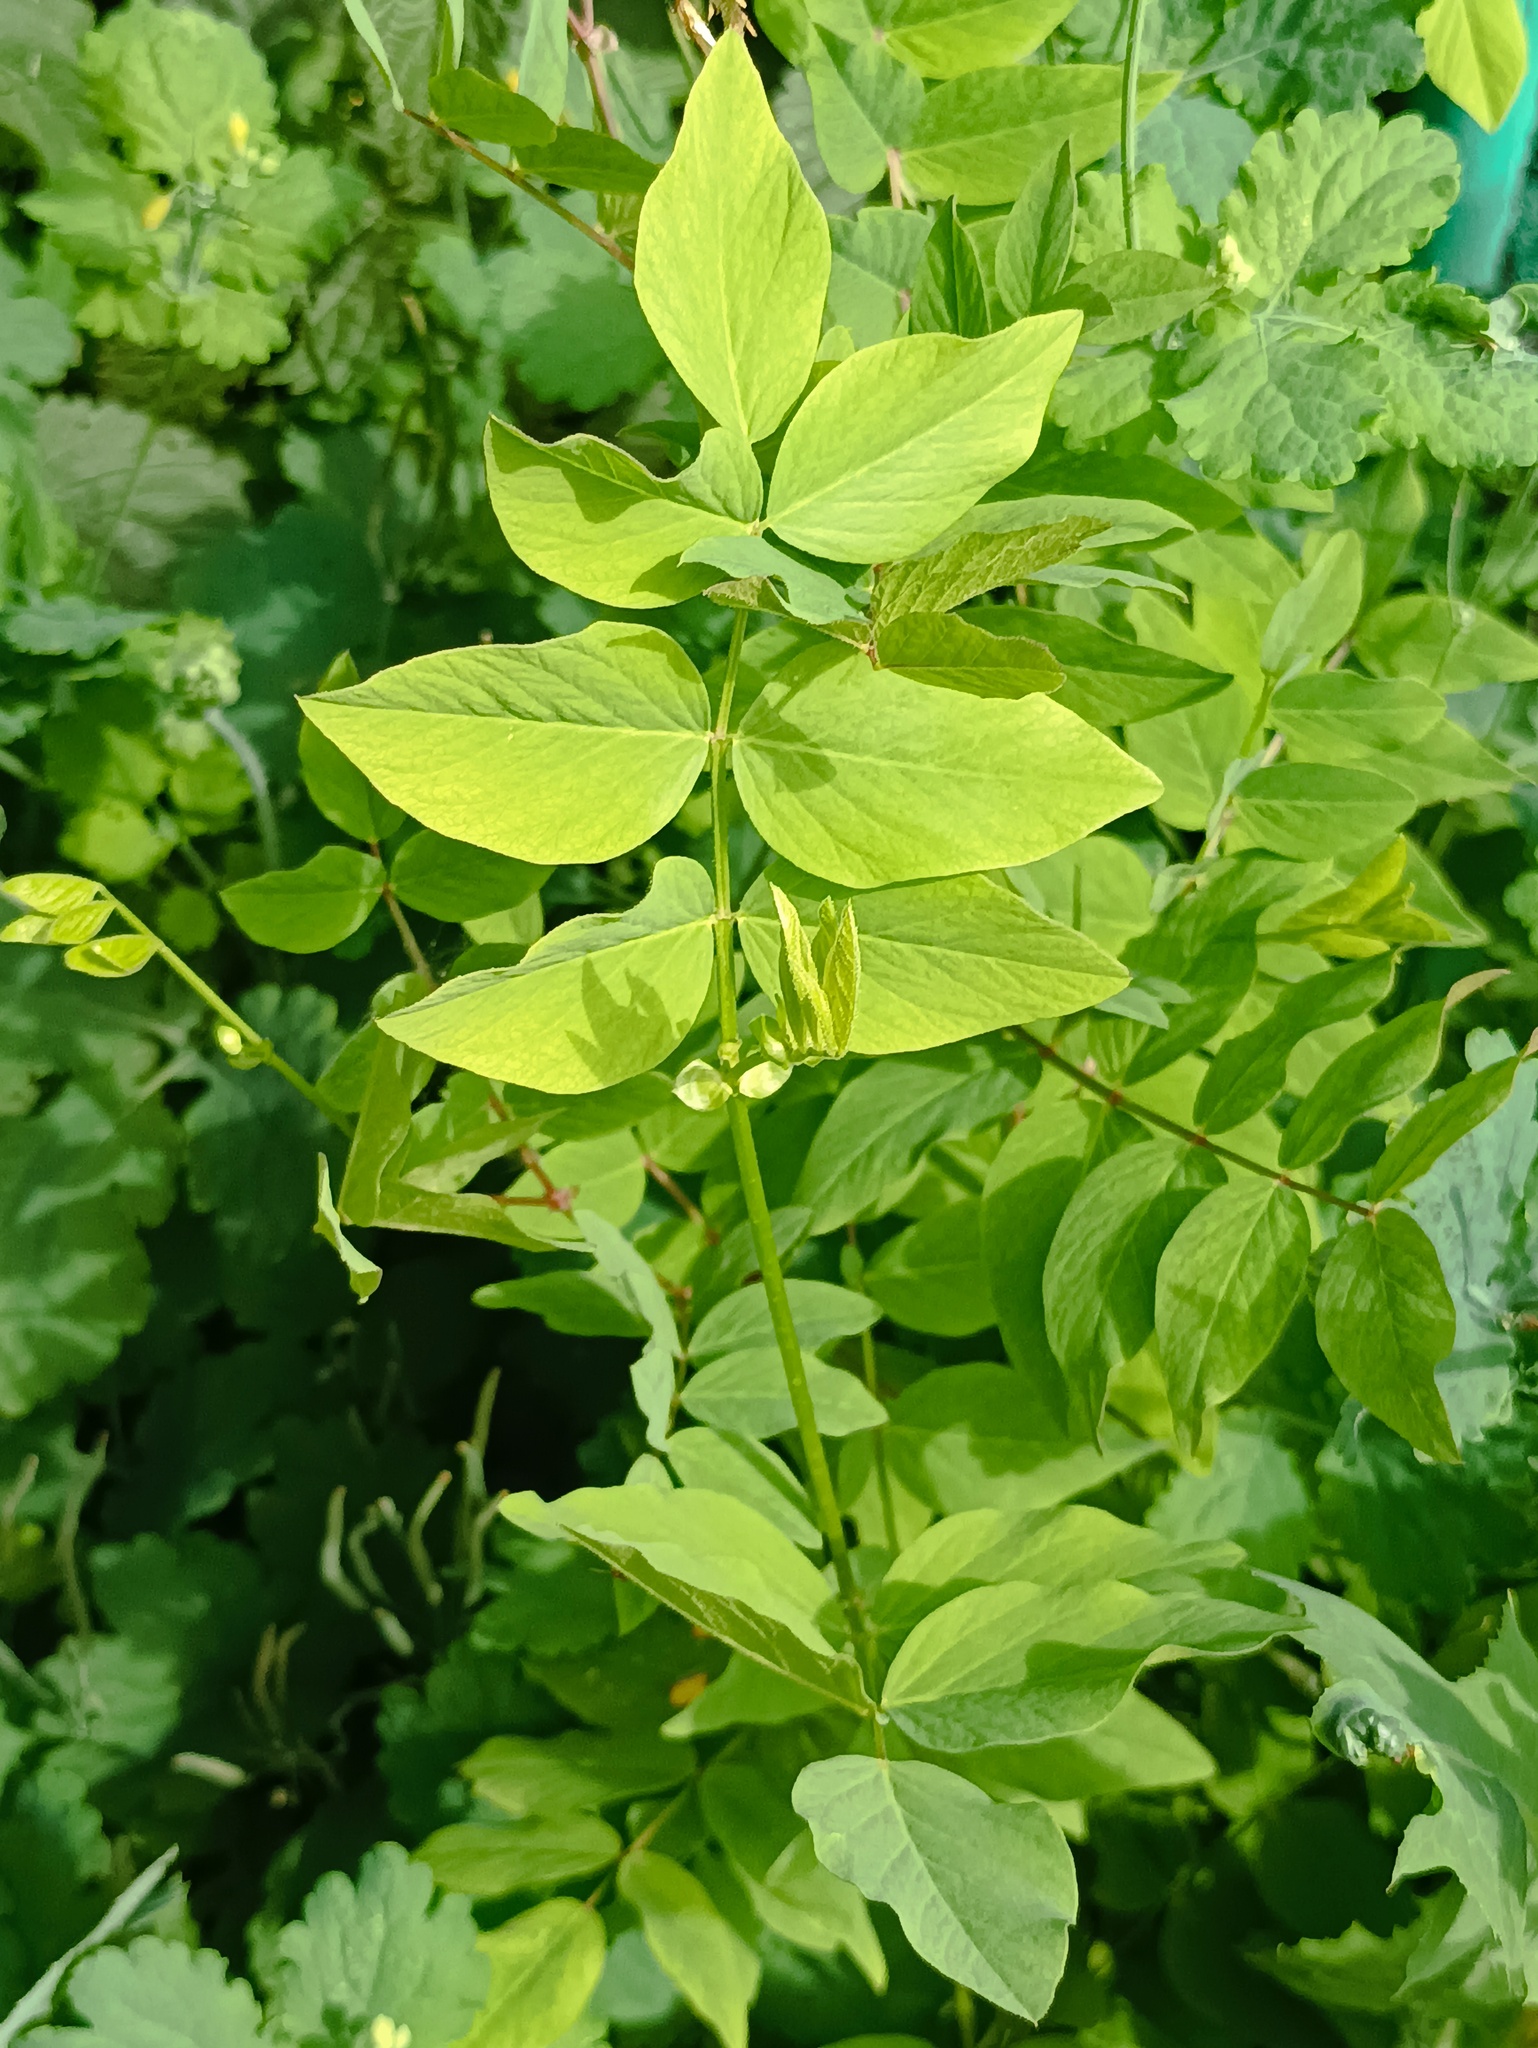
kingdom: Plantae
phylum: Tracheophyta
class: Magnoliopsida
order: Fabales
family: Fabaceae
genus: Galega
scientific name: Galega orientalis
